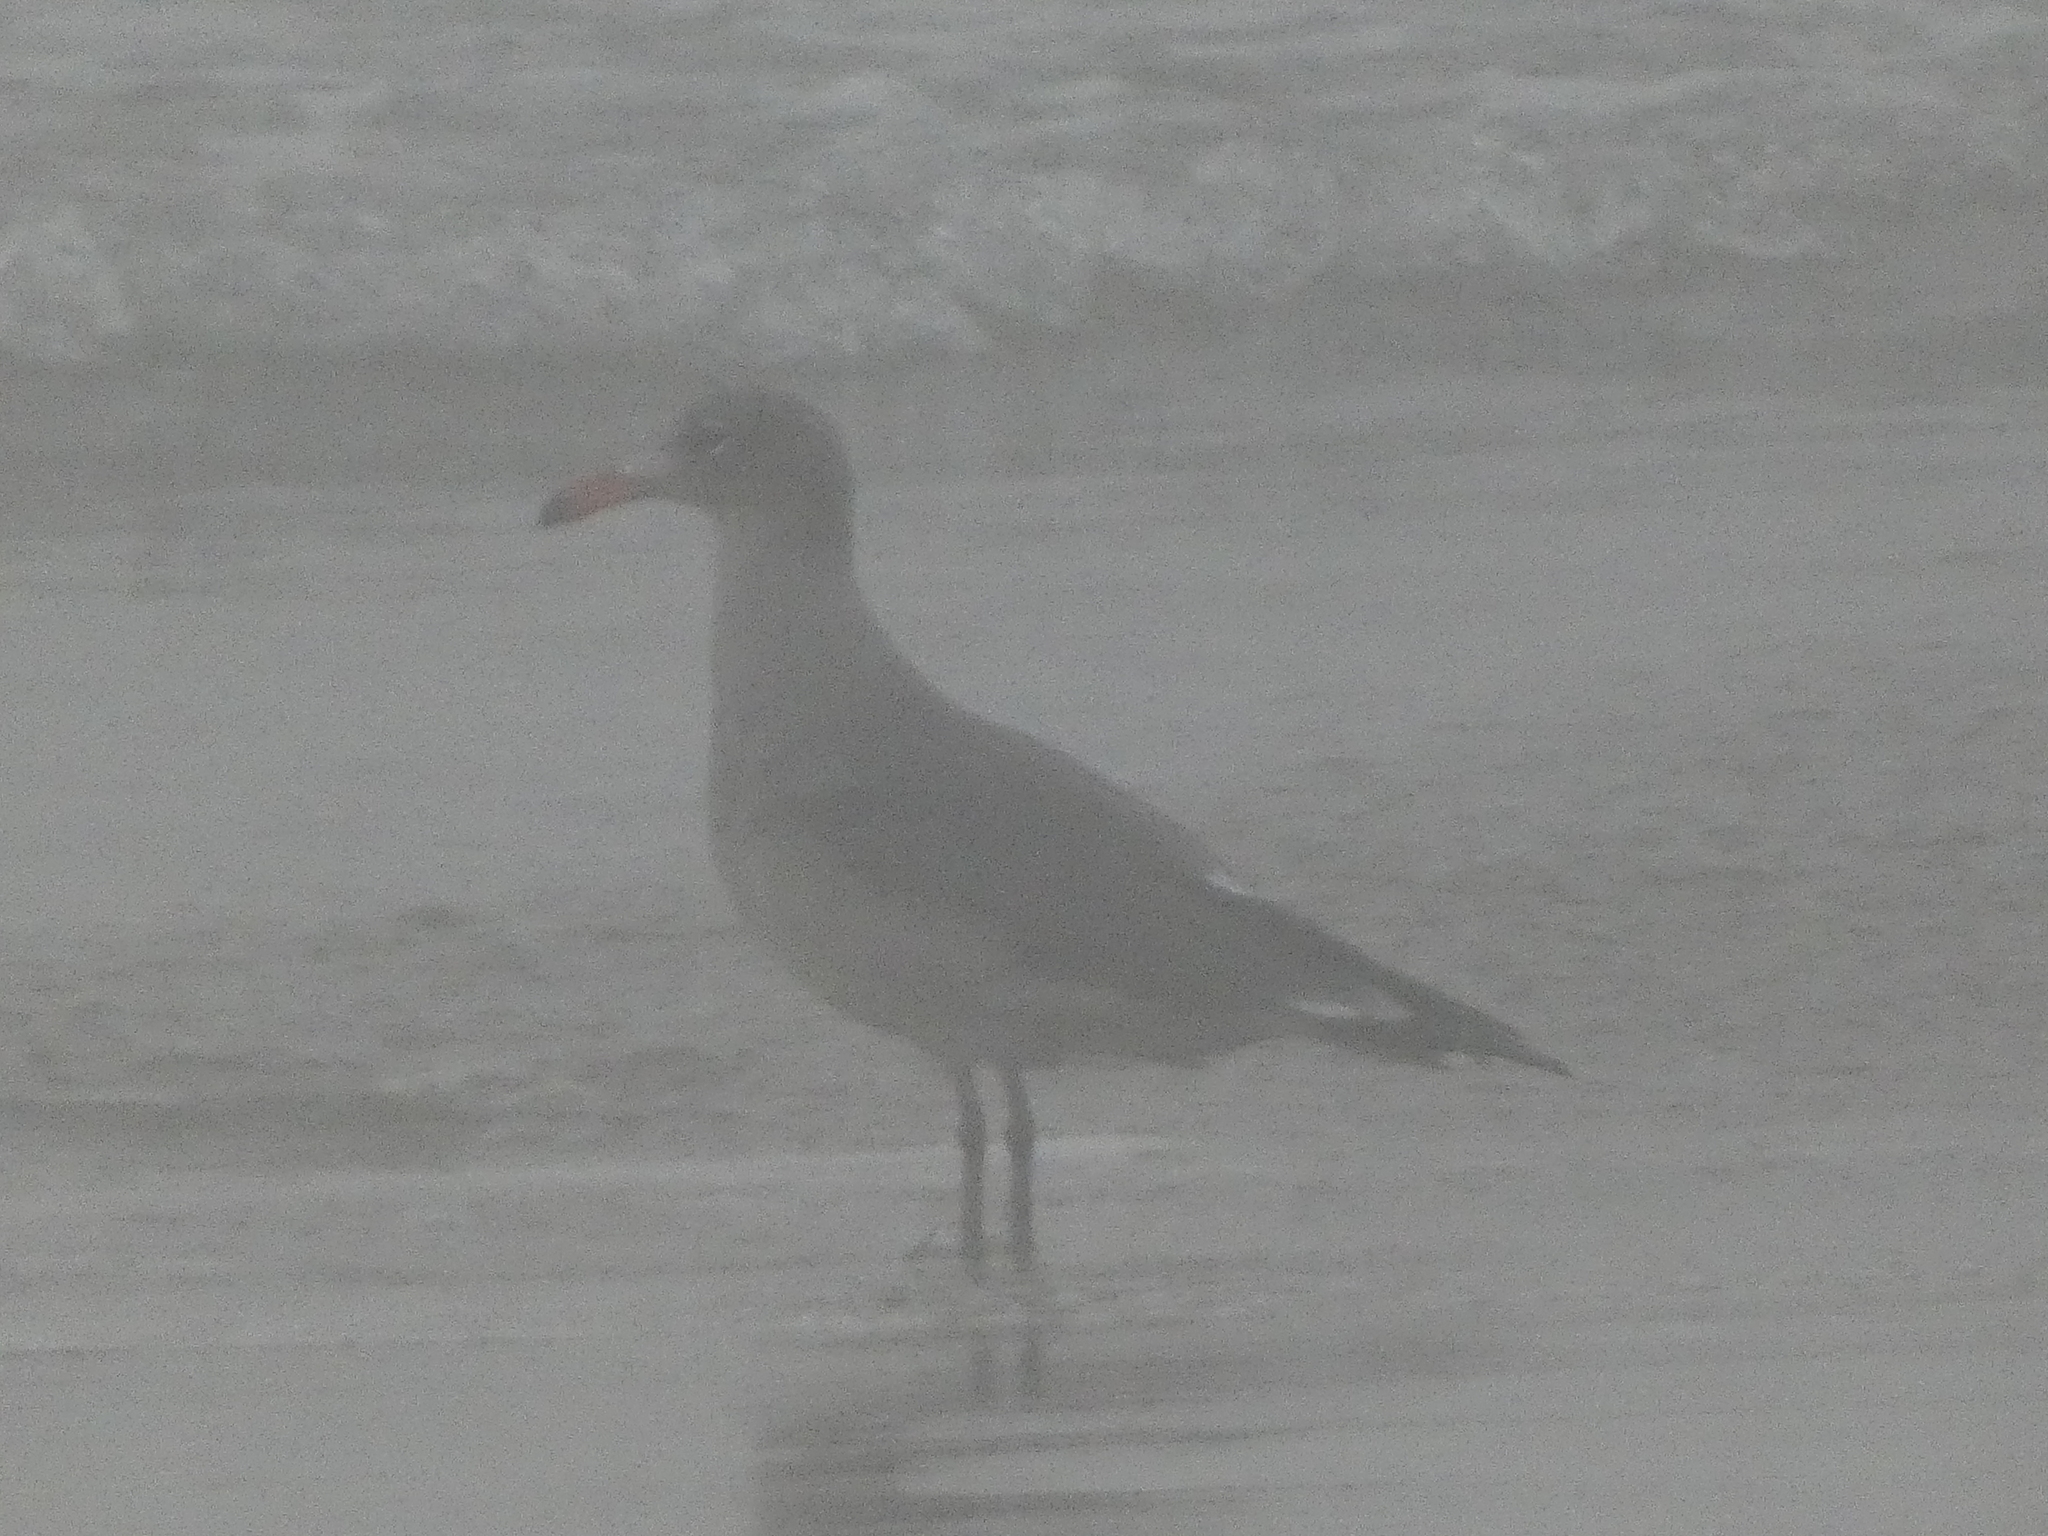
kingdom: Animalia
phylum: Chordata
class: Aves
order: Charadriiformes
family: Laridae
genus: Larus
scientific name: Larus heermanni
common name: Heermann's gull
